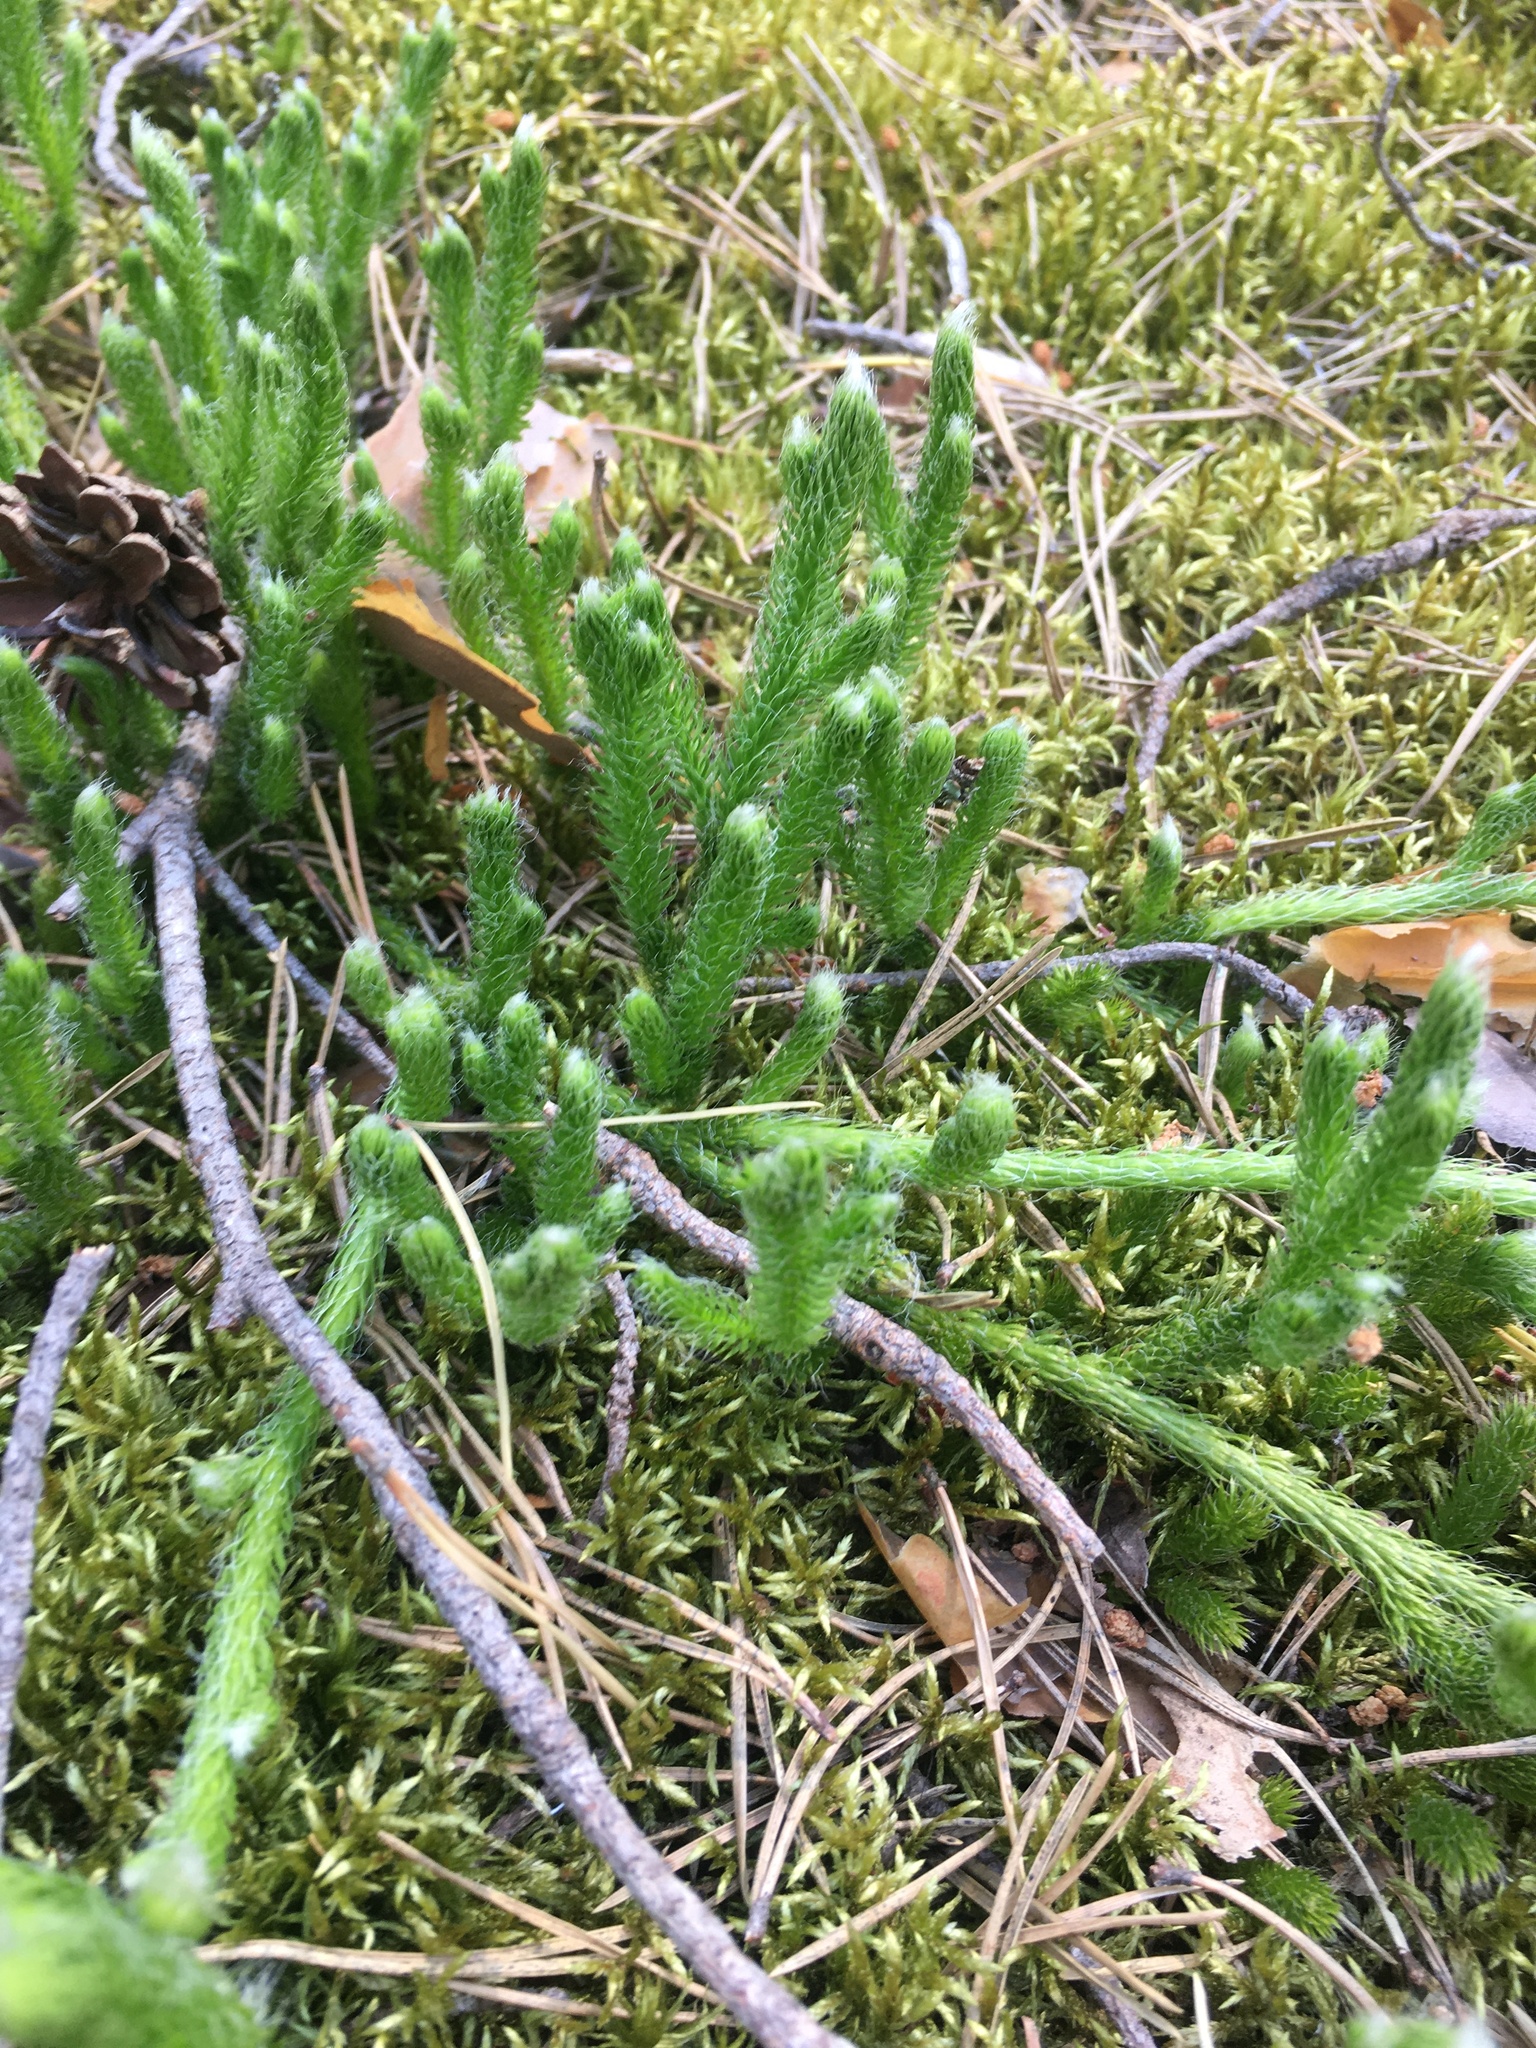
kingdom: Plantae
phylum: Tracheophyta
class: Lycopodiopsida
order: Lycopodiales
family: Lycopodiaceae
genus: Lycopodium
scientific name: Lycopodium clavatum
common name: Stag's-horn clubmoss
